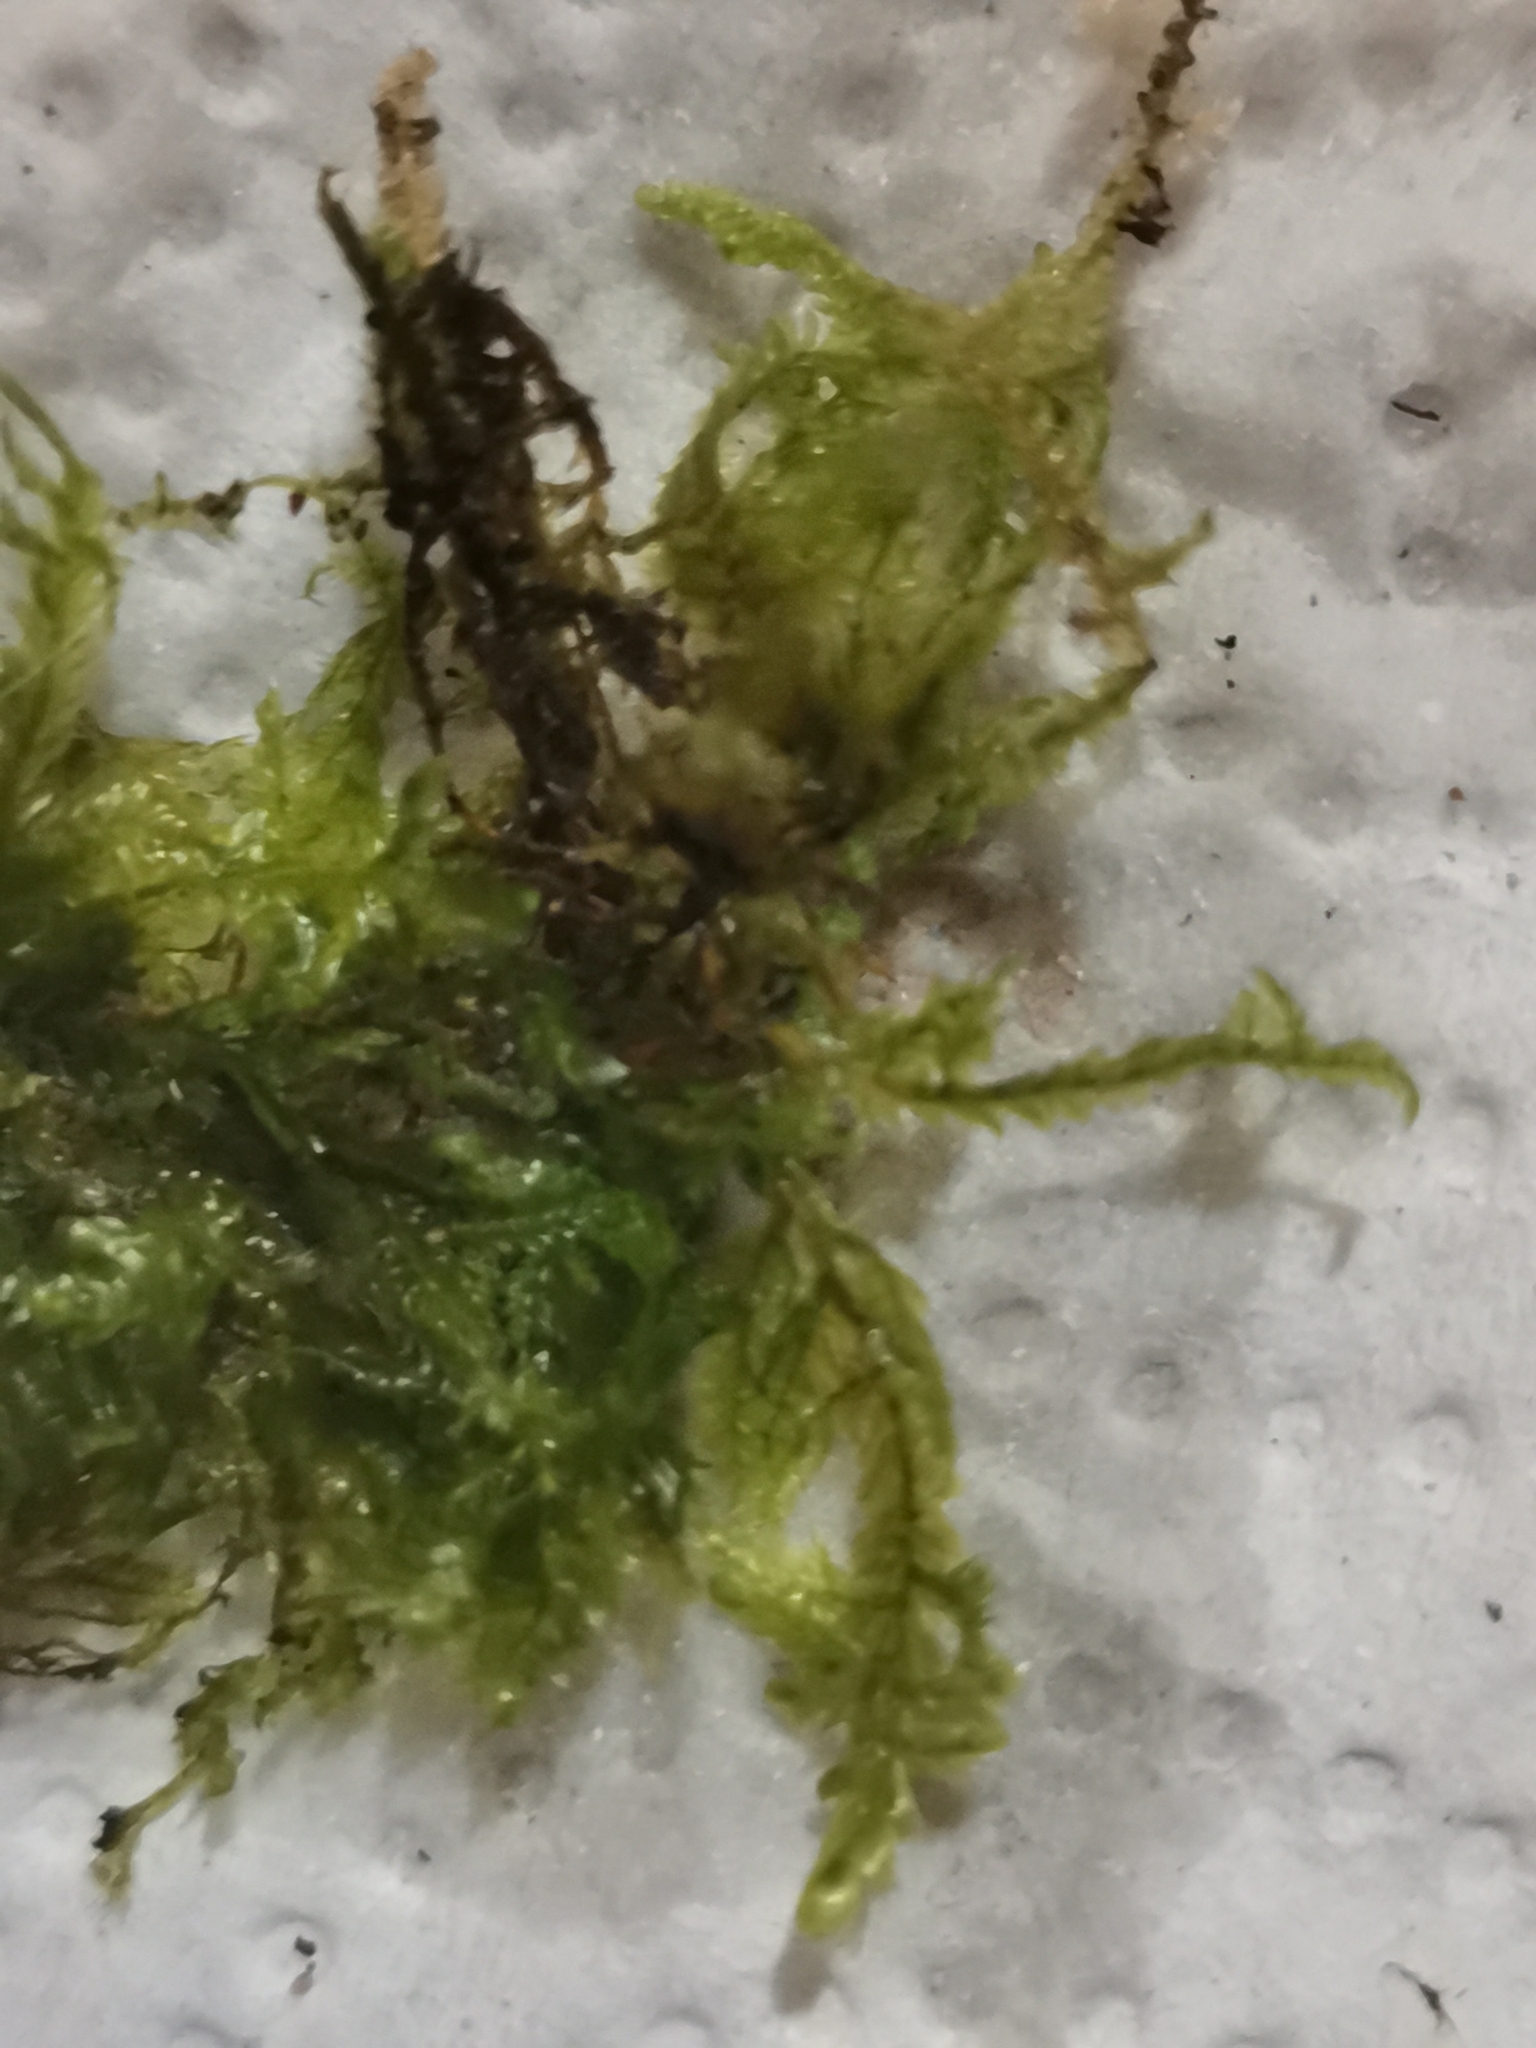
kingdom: Plantae
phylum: Bryophyta
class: Bryopsida
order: Hypnales
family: Neckeraceae
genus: Alleniella
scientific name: Alleniella complanata
